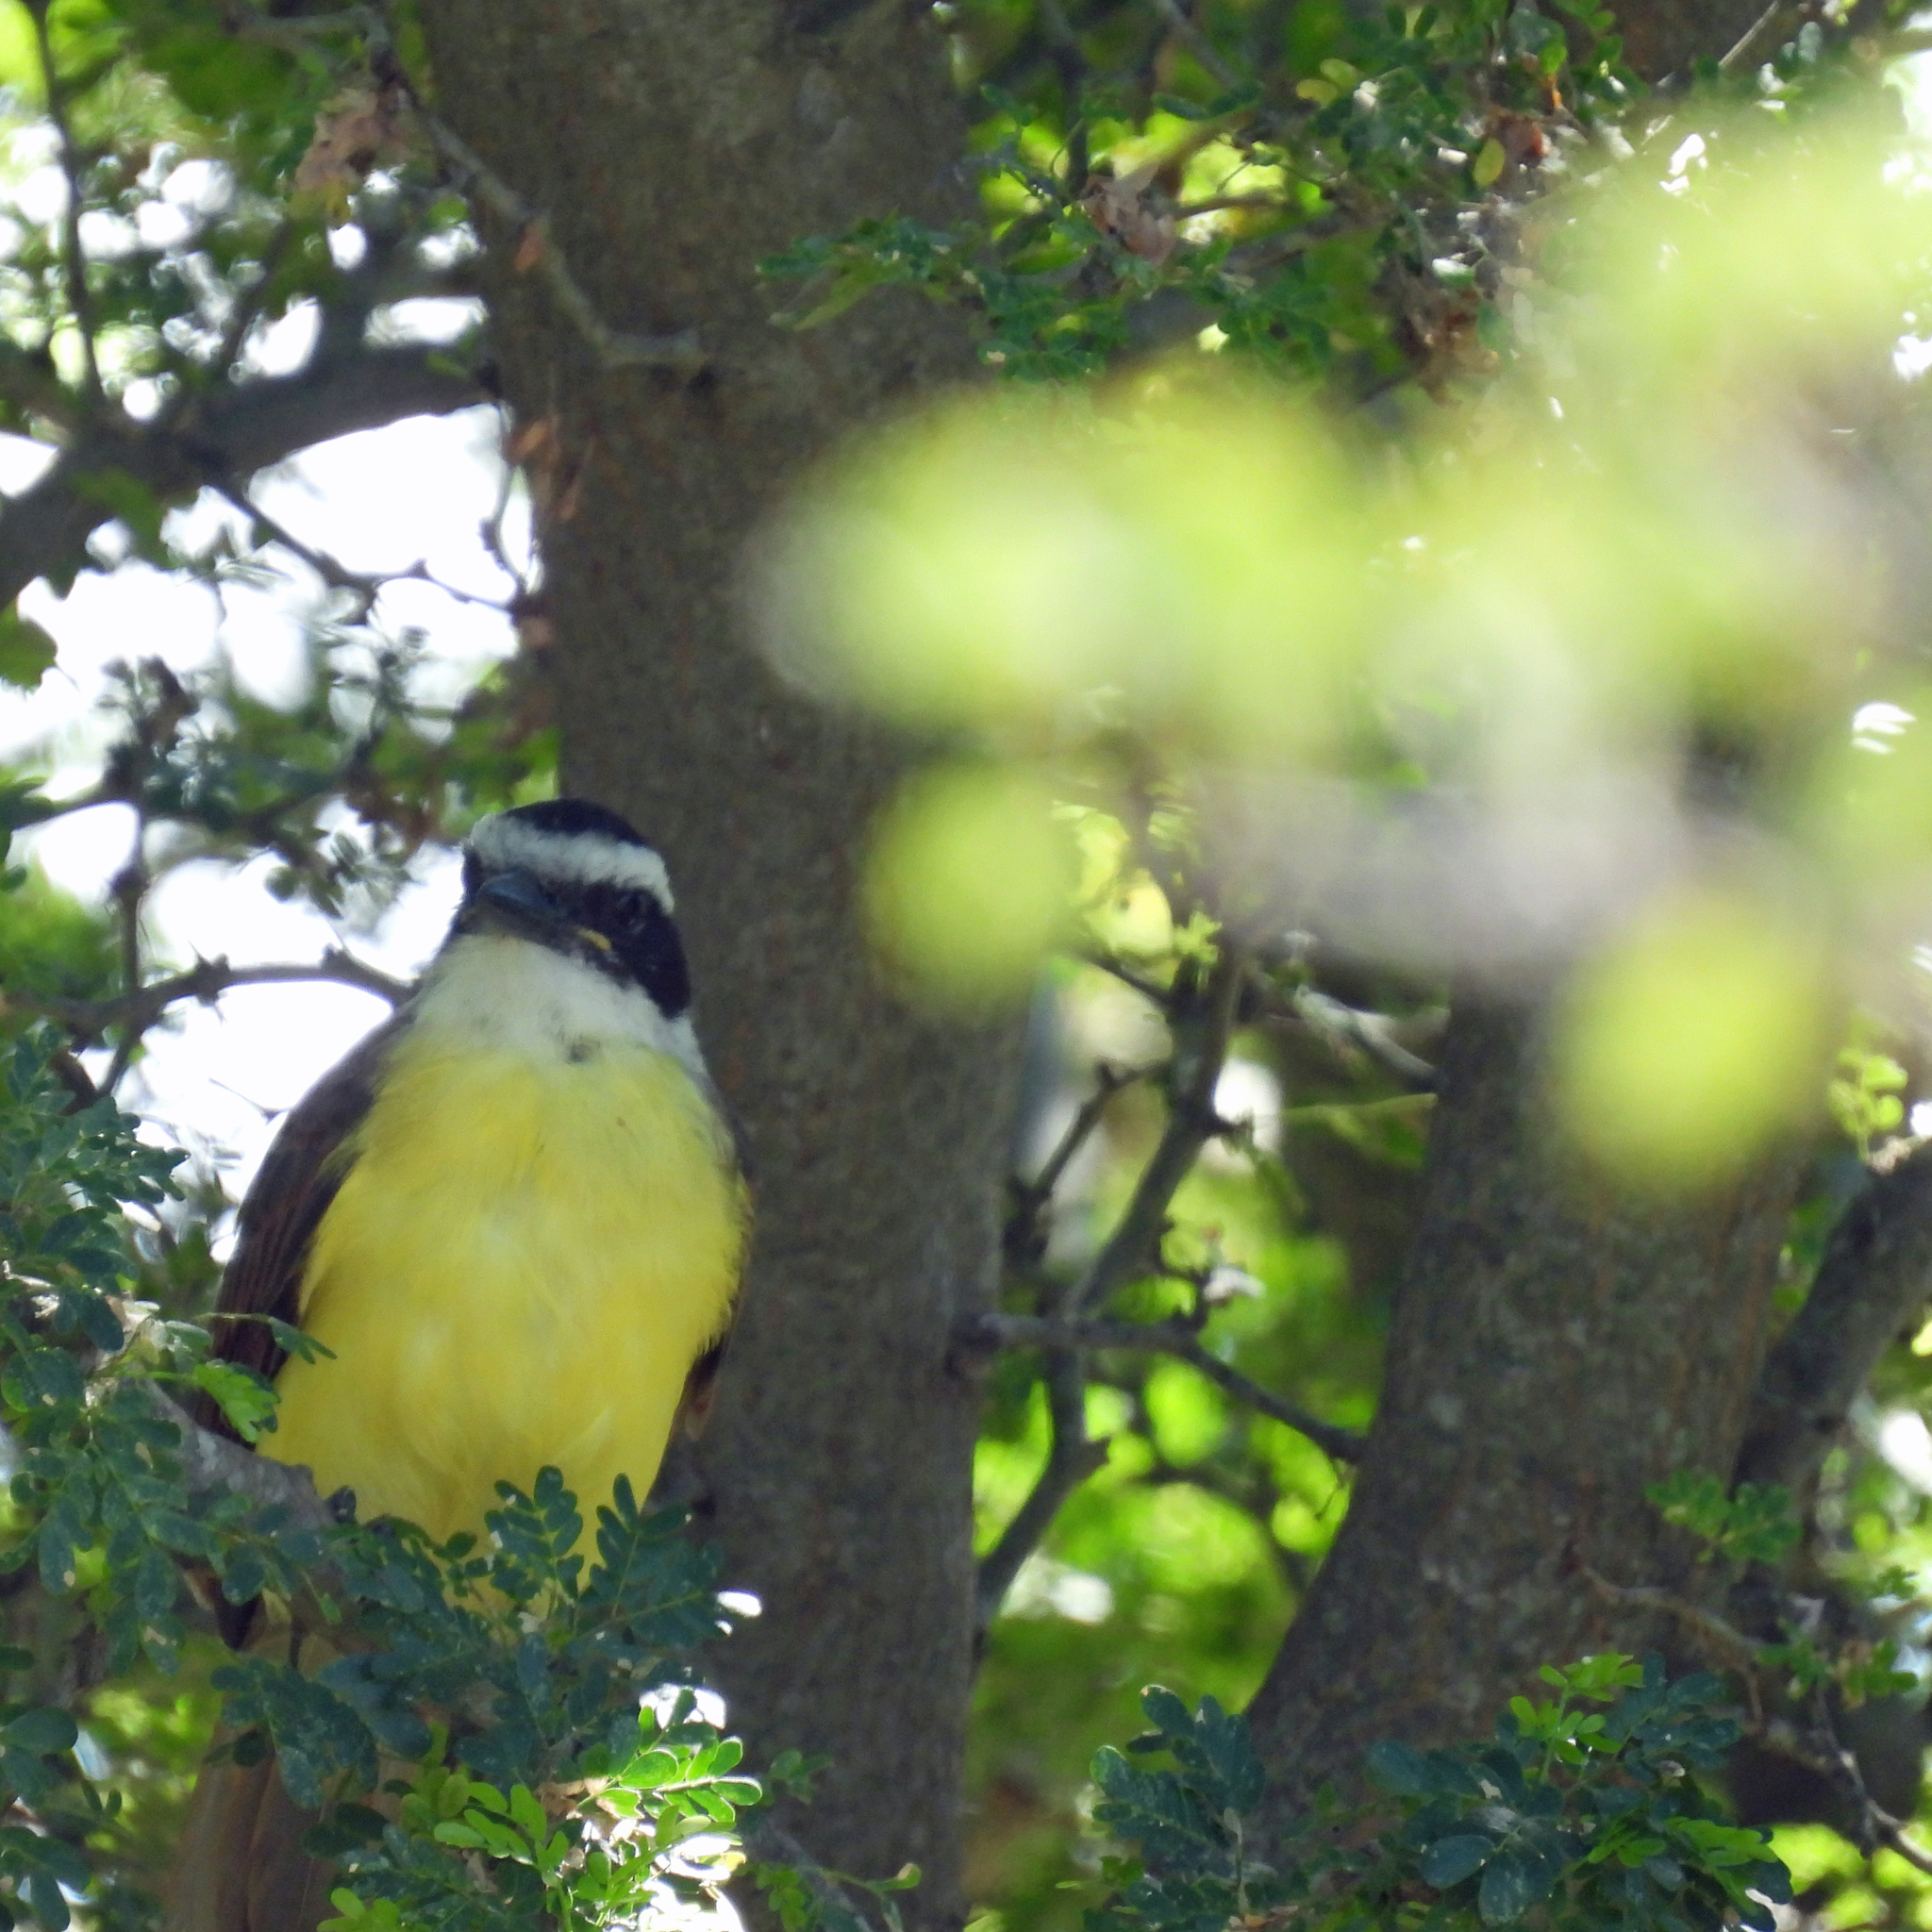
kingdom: Animalia
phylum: Chordata
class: Aves
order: Passeriformes
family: Tyrannidae
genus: Pitangus
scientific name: Pitangus sulphuratus
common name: Great kiskadee
